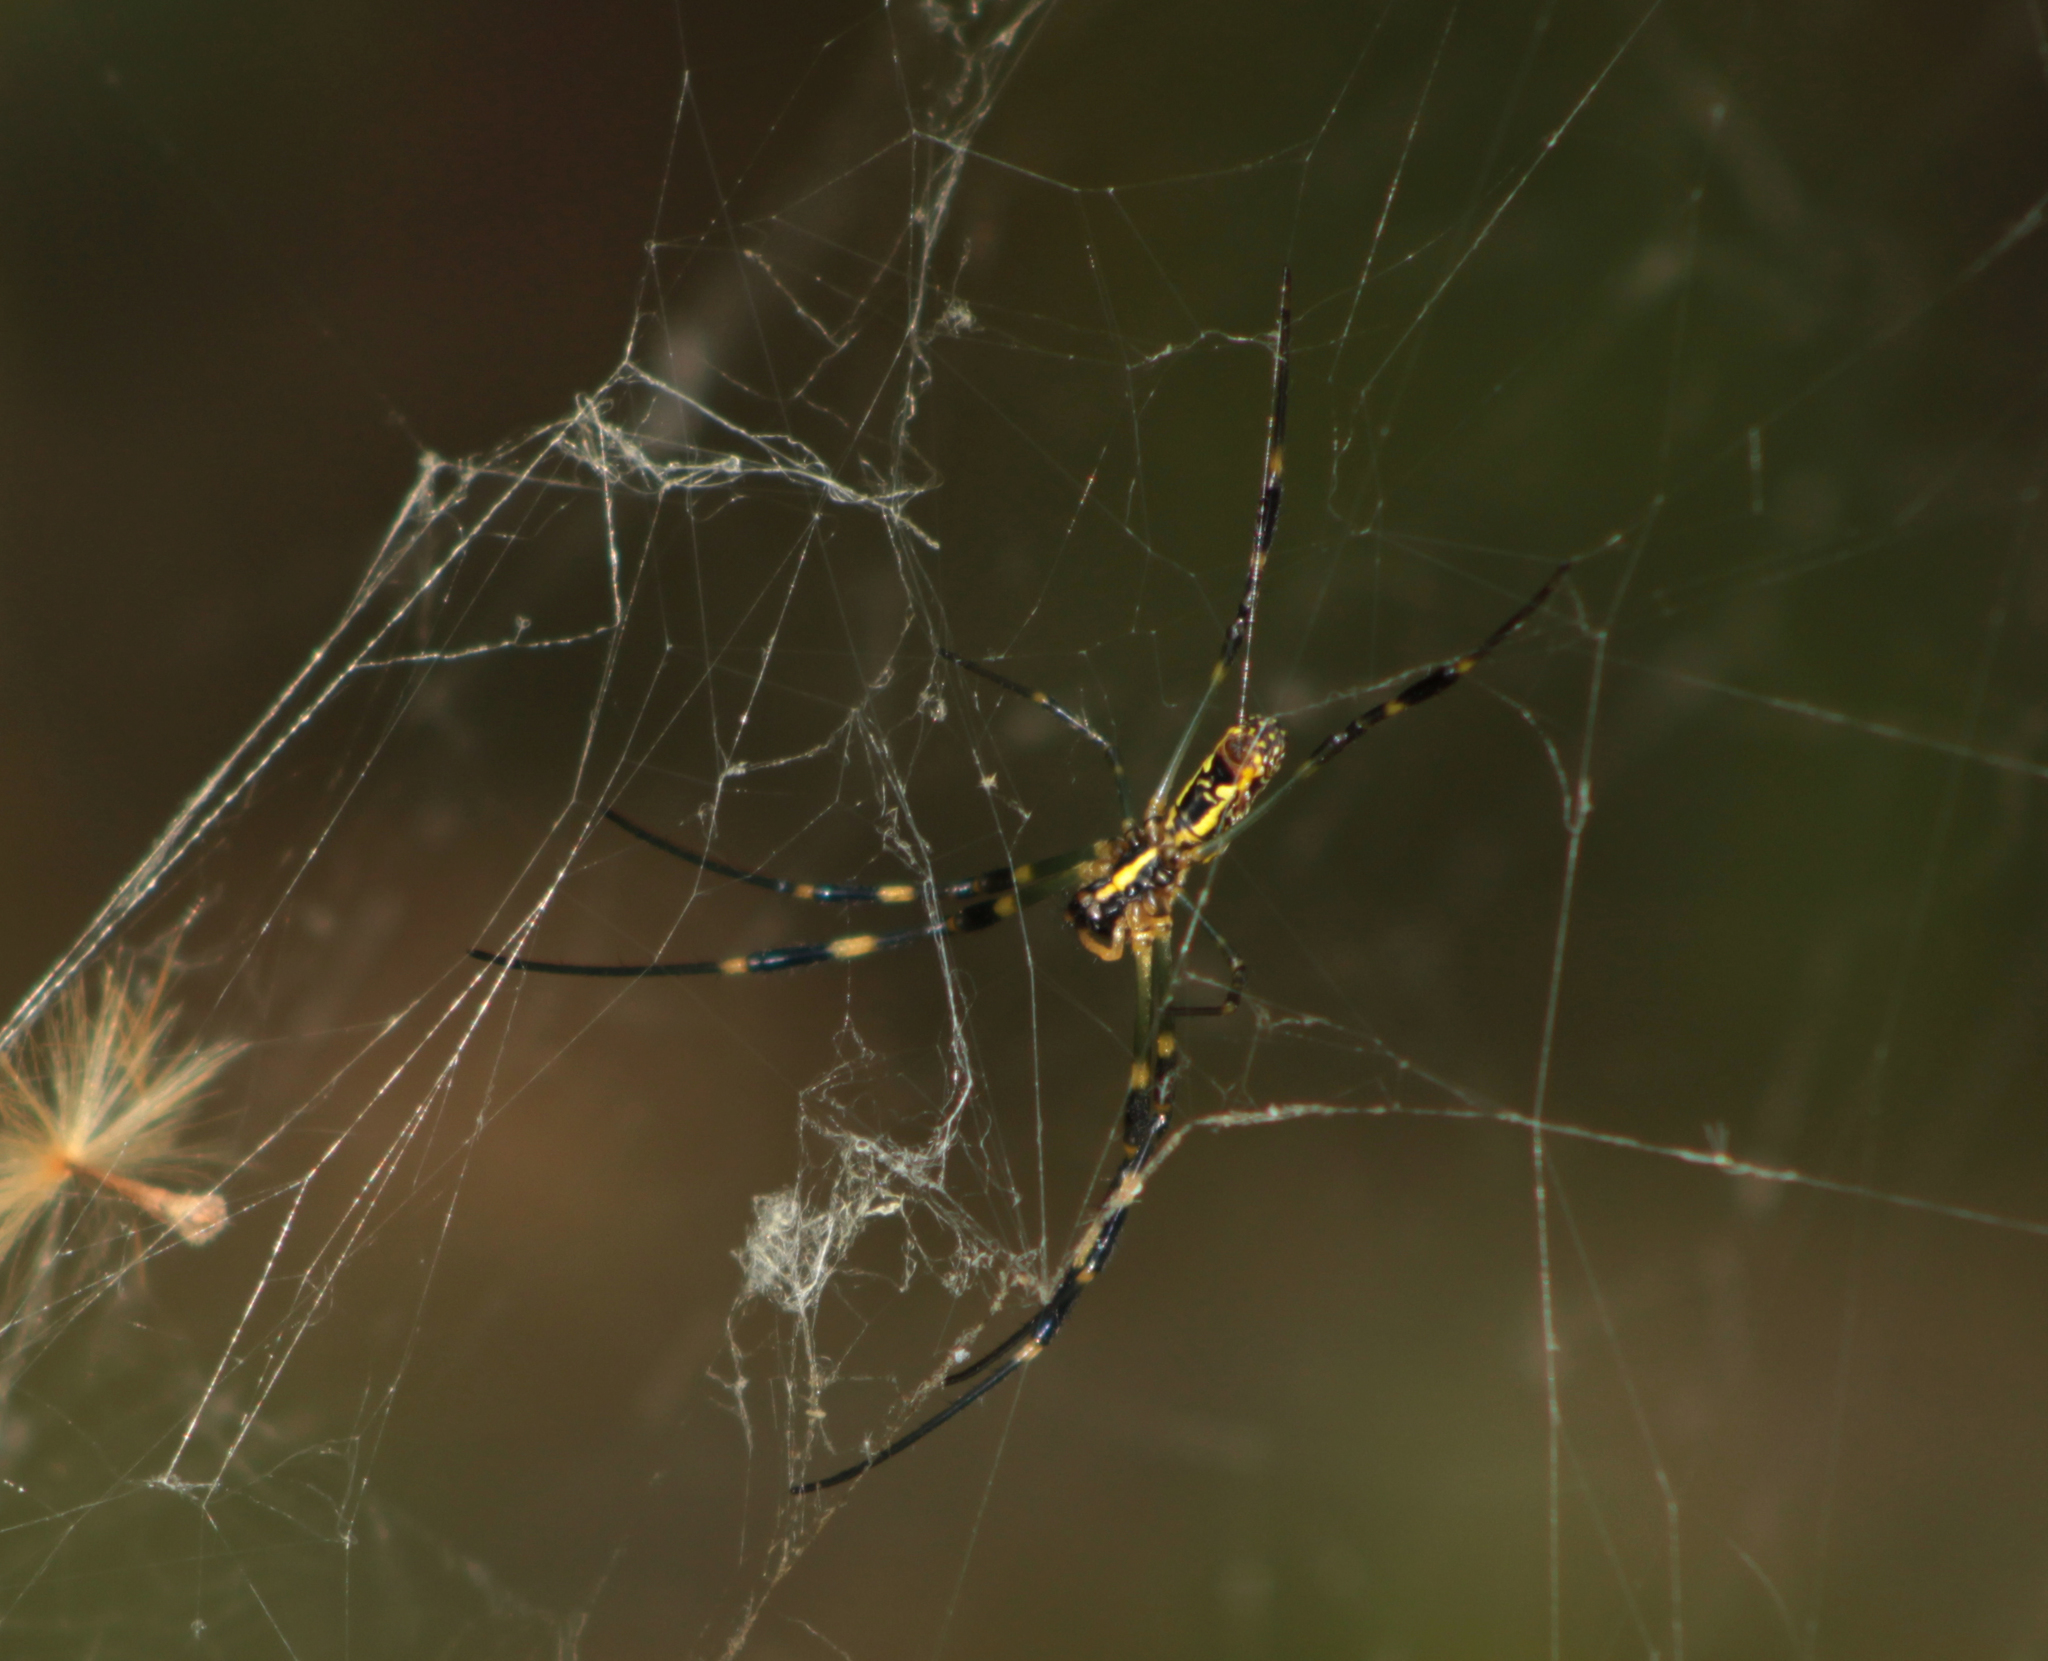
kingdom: Animalia
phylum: Arthropoda
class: Arachnida
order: Araneae
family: Araneidae
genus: Trichonephila
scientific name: Trichonephila clavata
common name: Jorō spider
